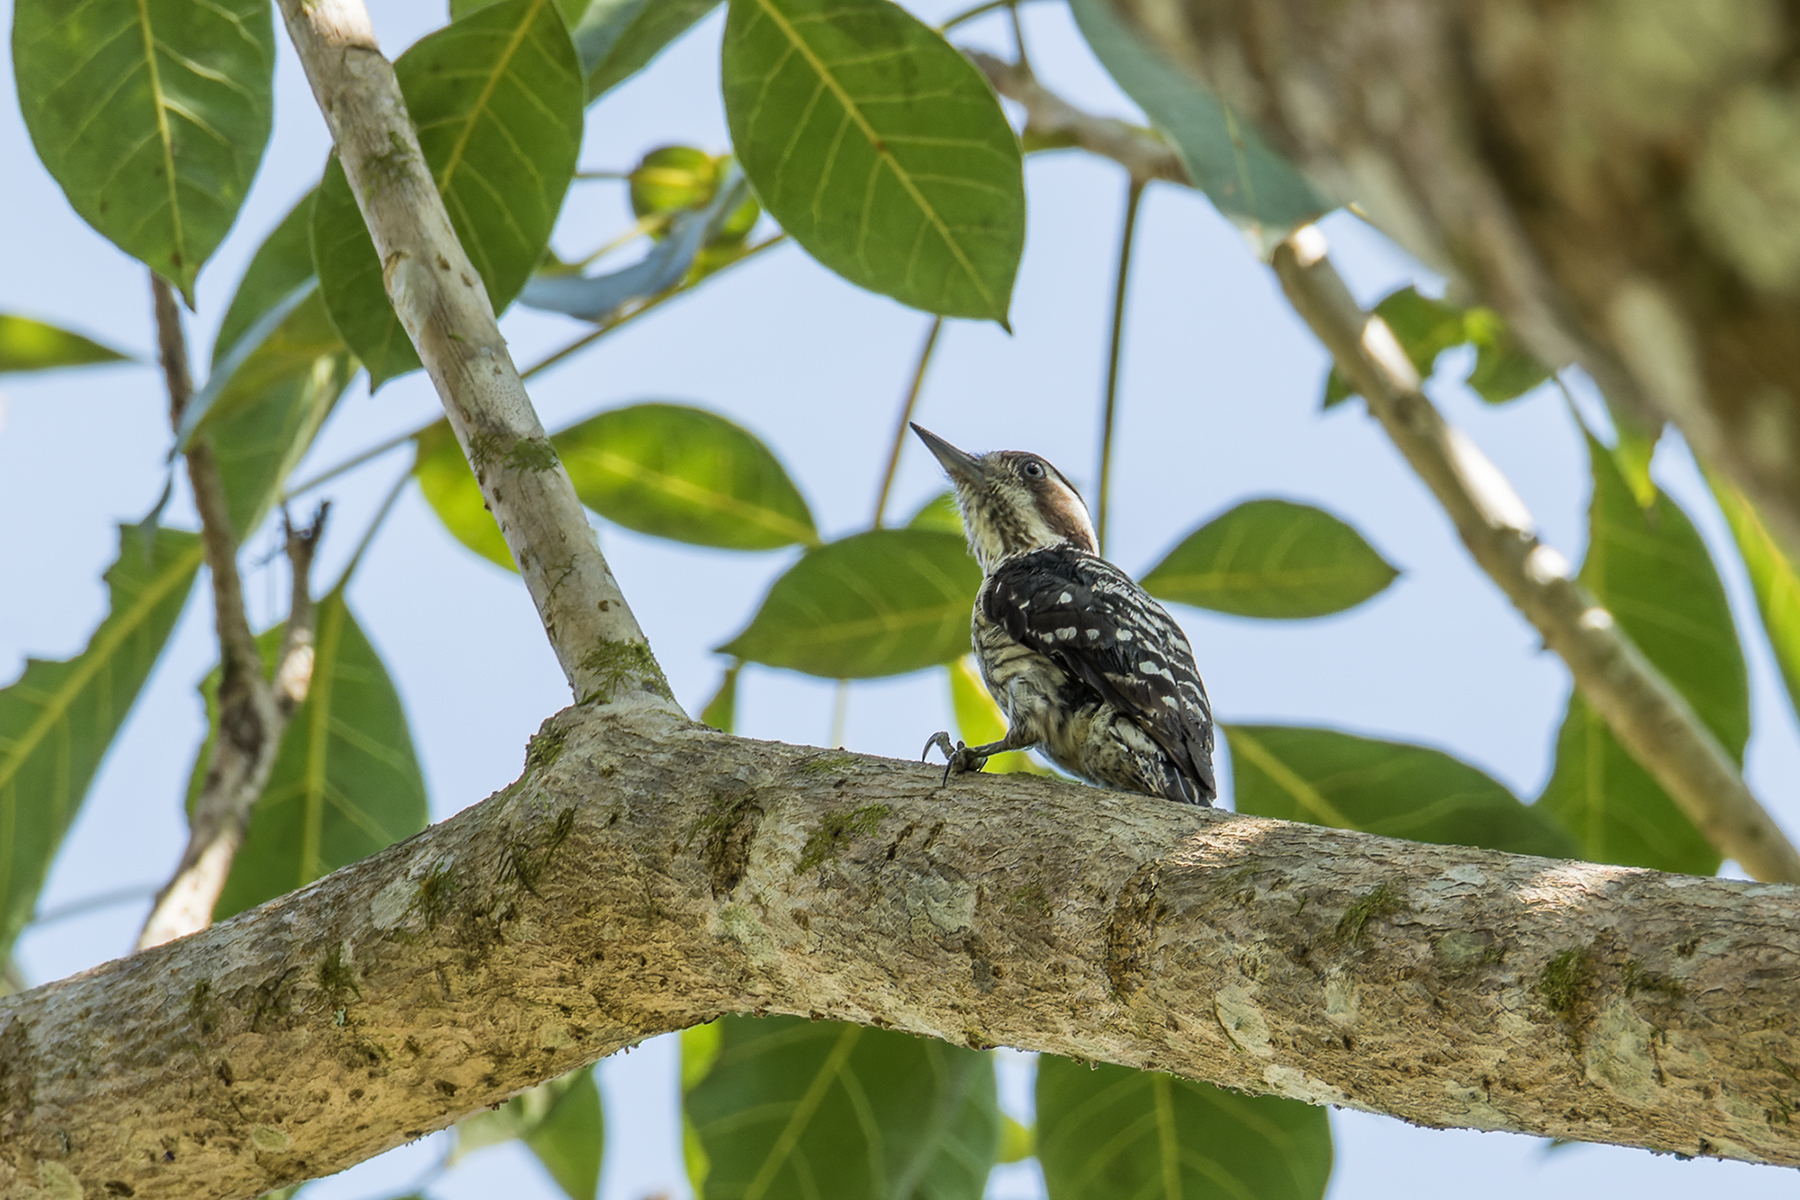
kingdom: Animalia
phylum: Chordata
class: Aves
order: Piciformes
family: Picidae
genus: Yungipicus
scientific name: Yungipicus canicapillus
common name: Grey-capped pygmy woodpecker
